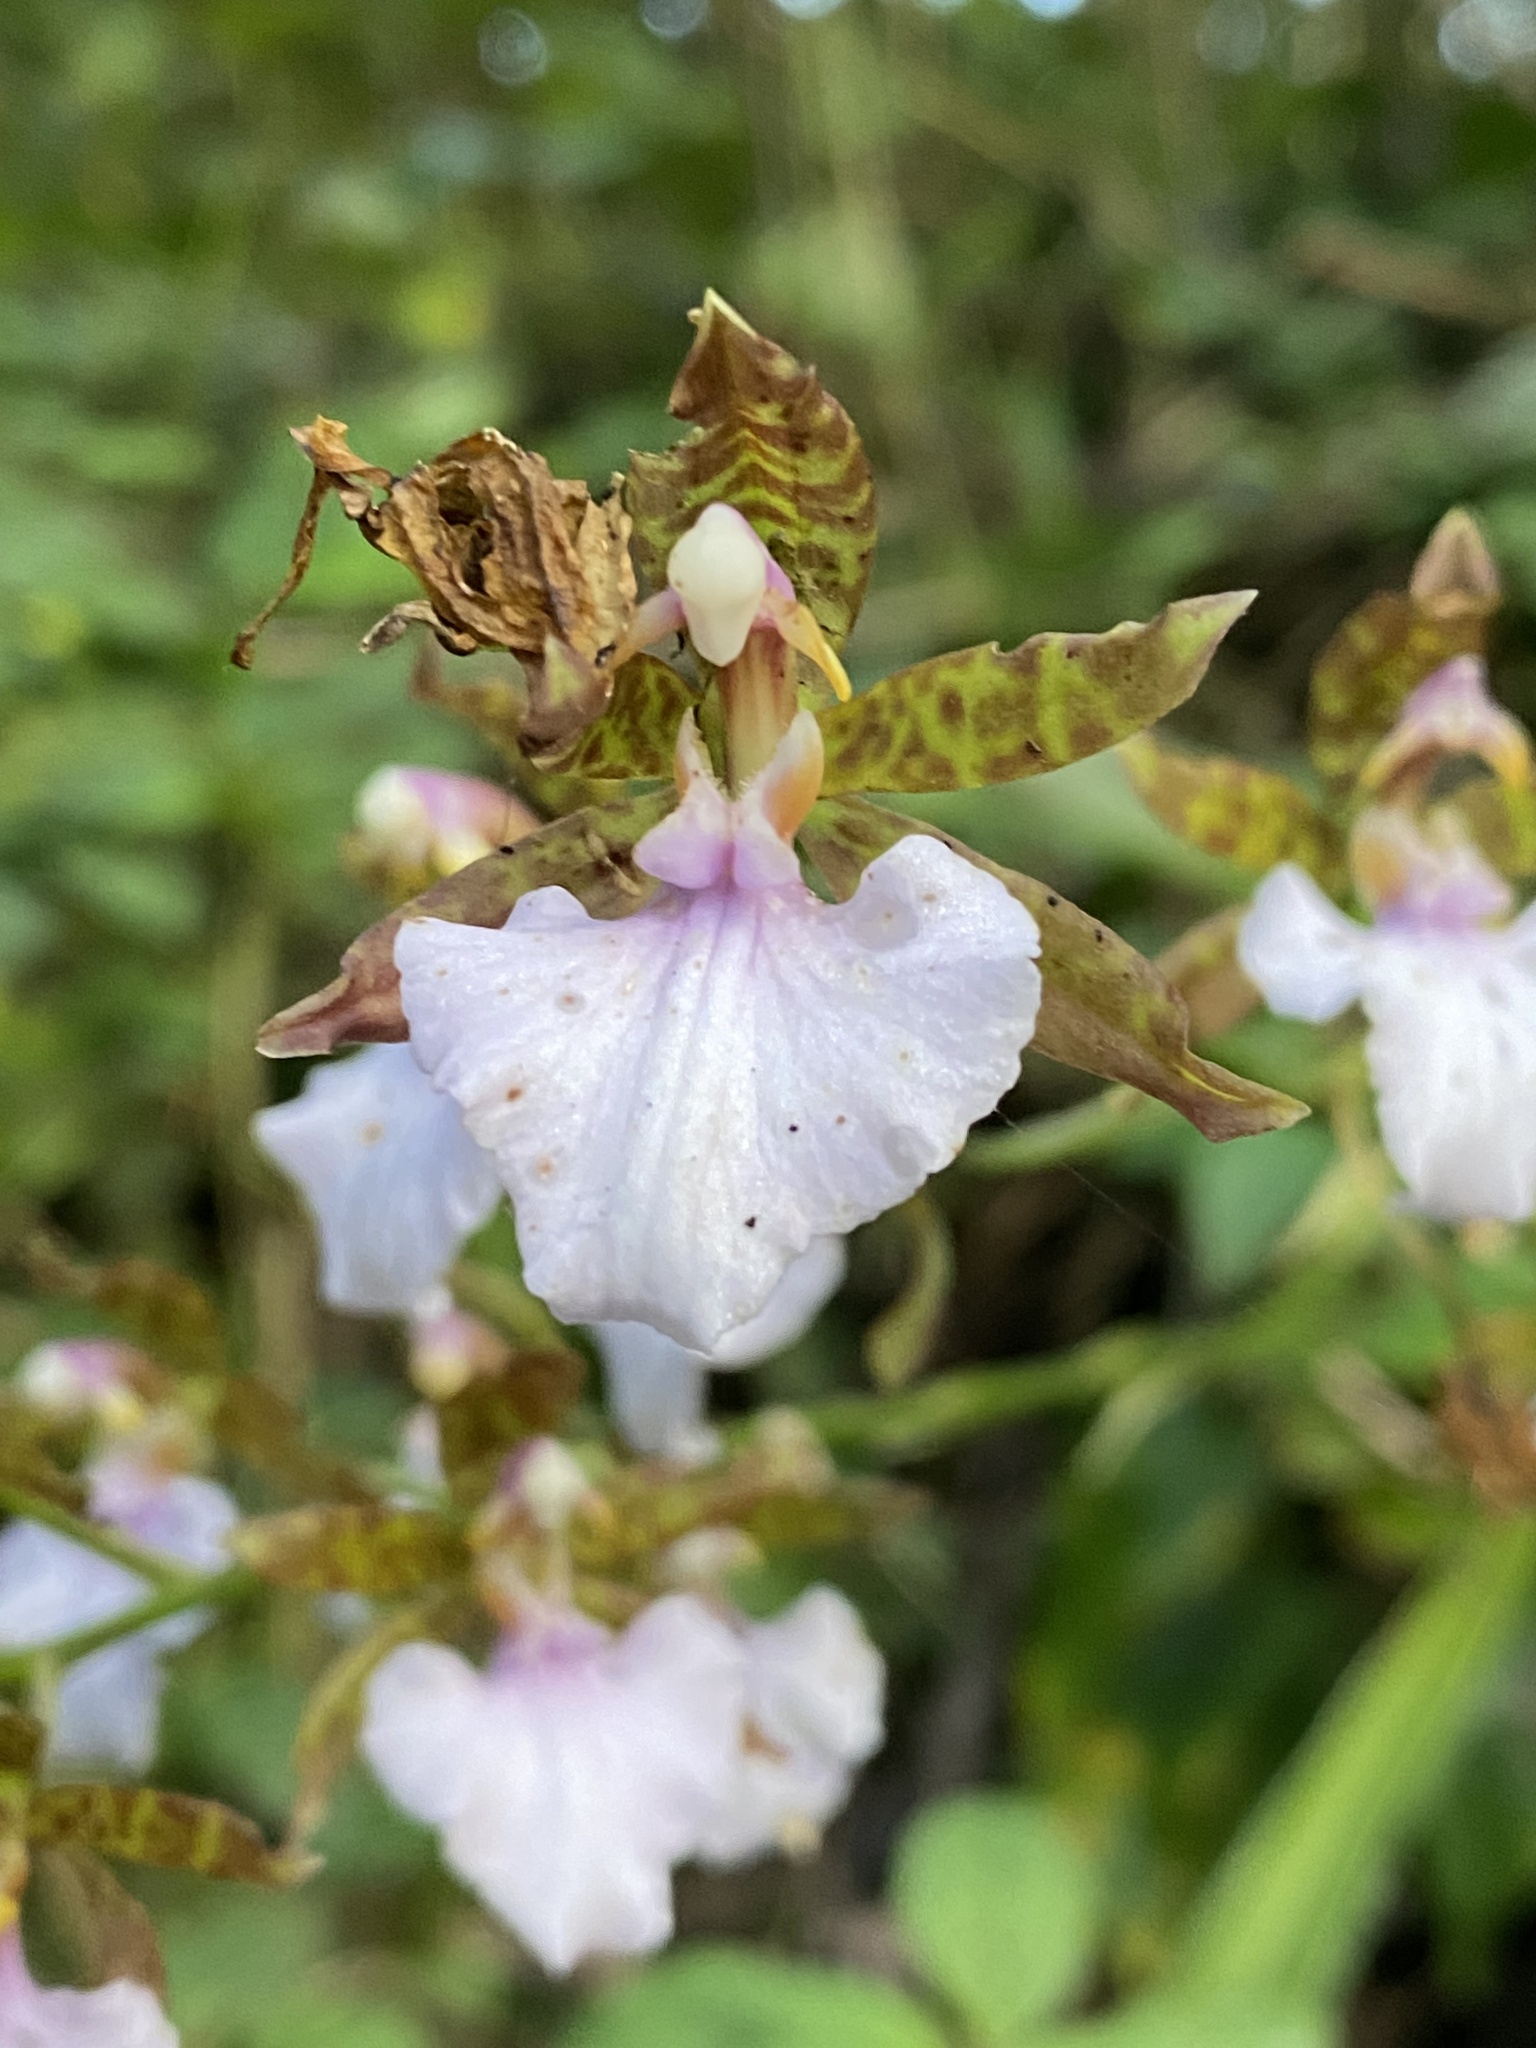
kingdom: Plantae
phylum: Tracheophyta
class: Liliopsida
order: Asparagales
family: Orchidaceae
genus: Rhynchostele
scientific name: Rhynchostele bictoniensis
